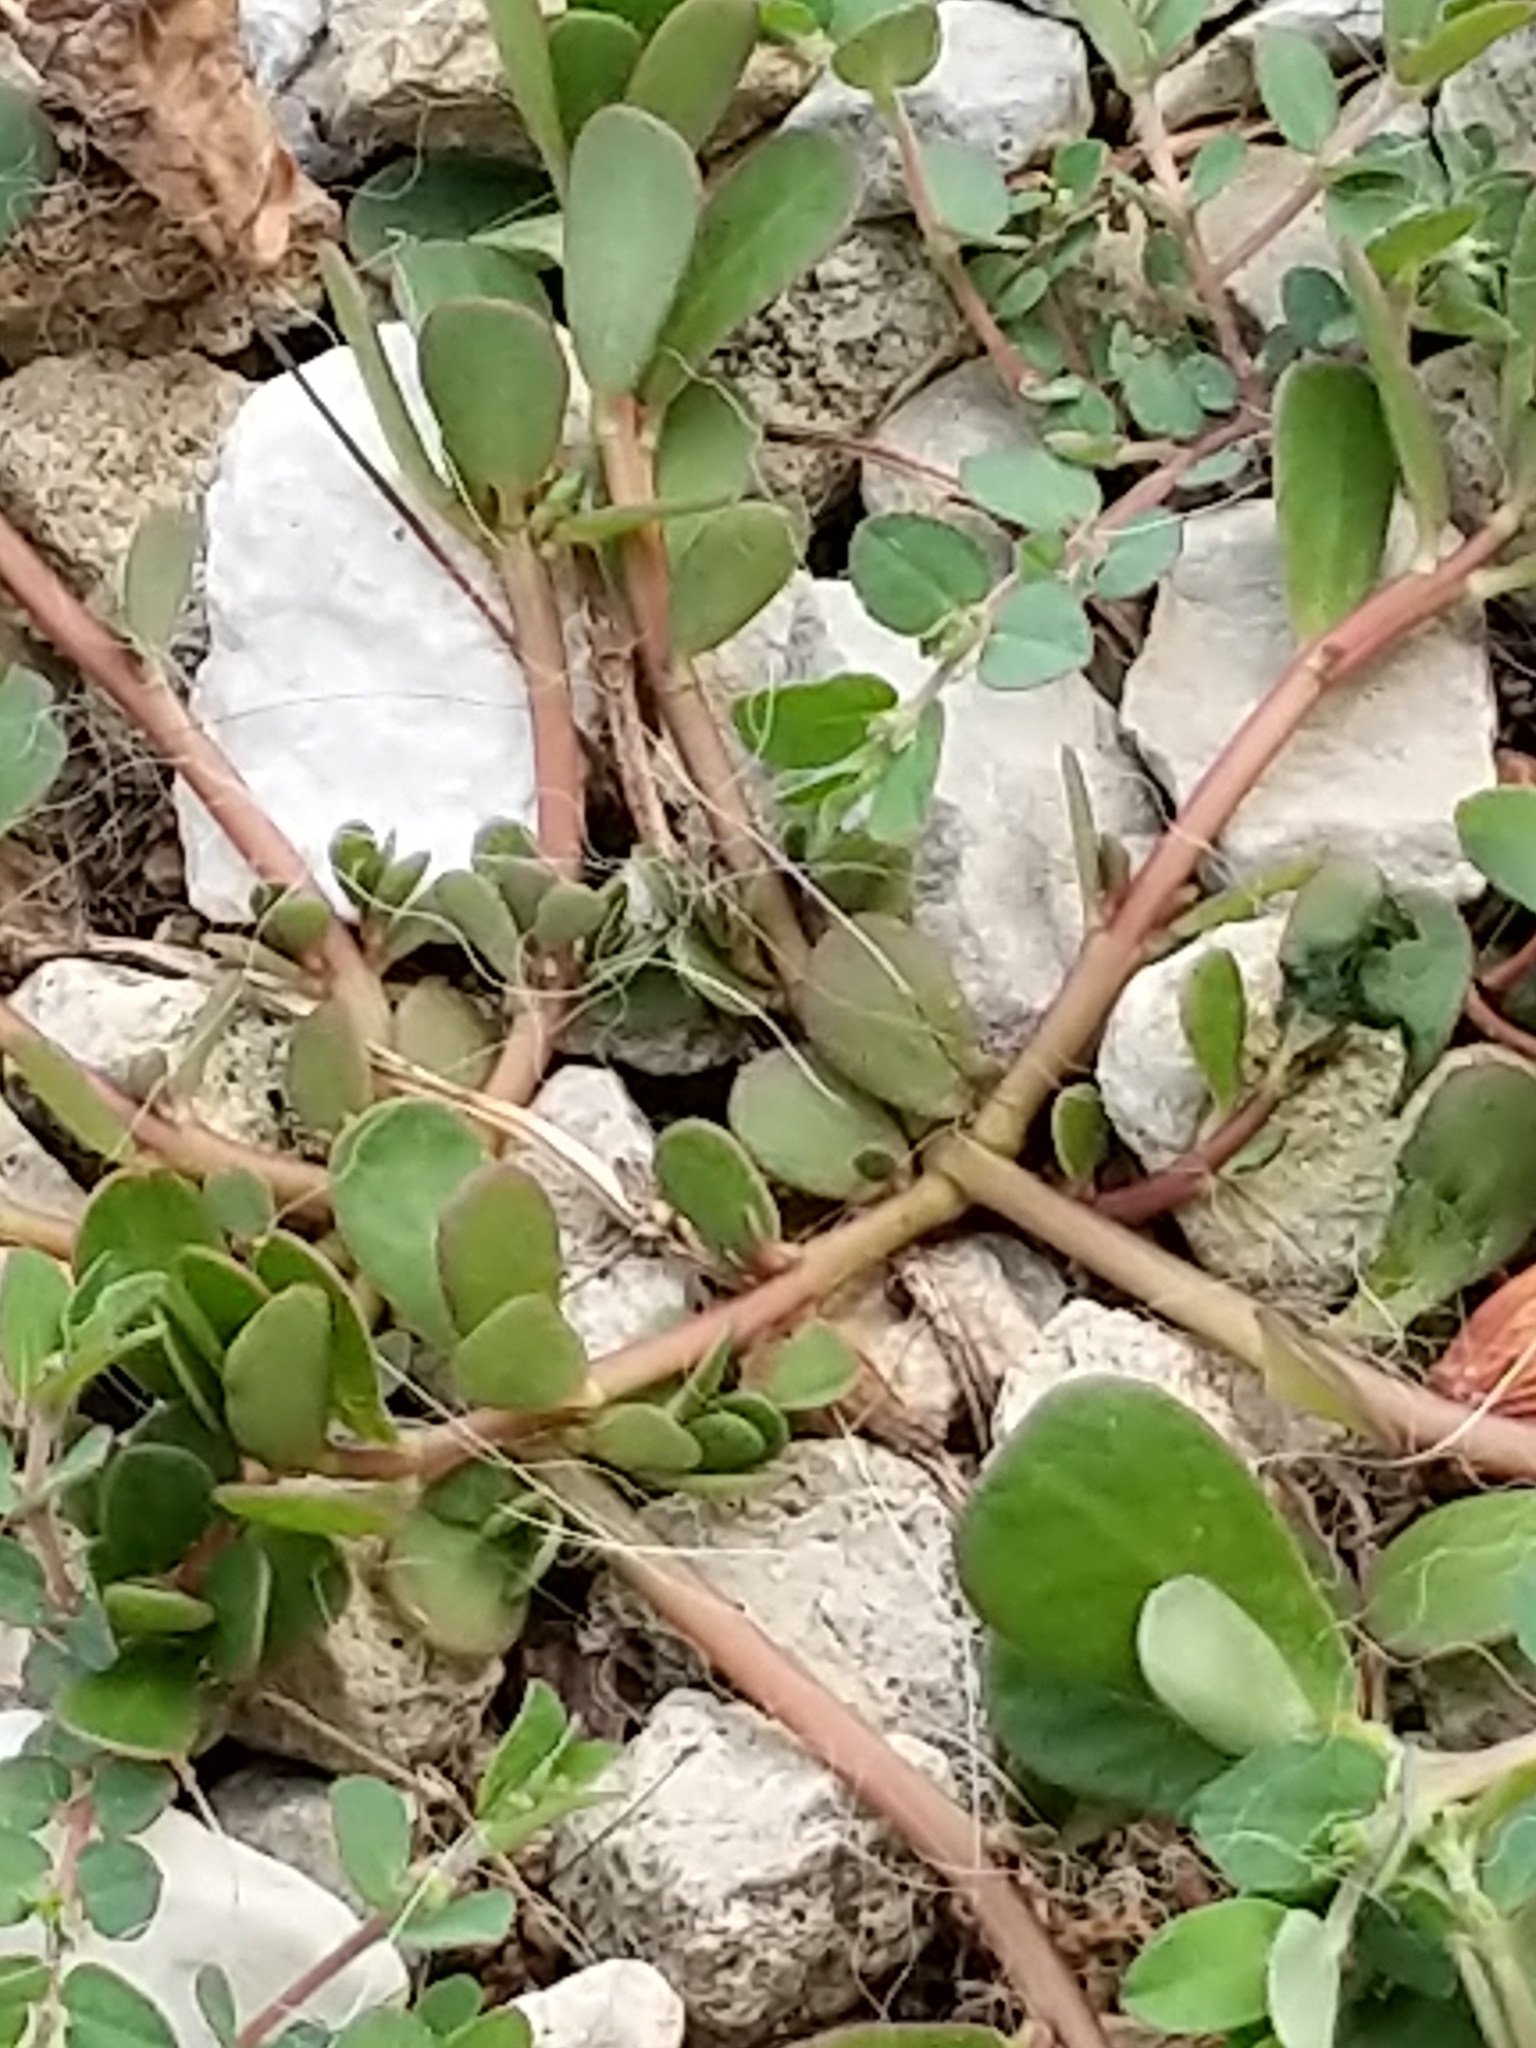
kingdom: Plantae
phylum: Tracheophyta
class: Magnoliopsida
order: Caryophyllales
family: Portulacaceae
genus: Portulaca
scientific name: Portulaca oleracea
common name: Common purslane
